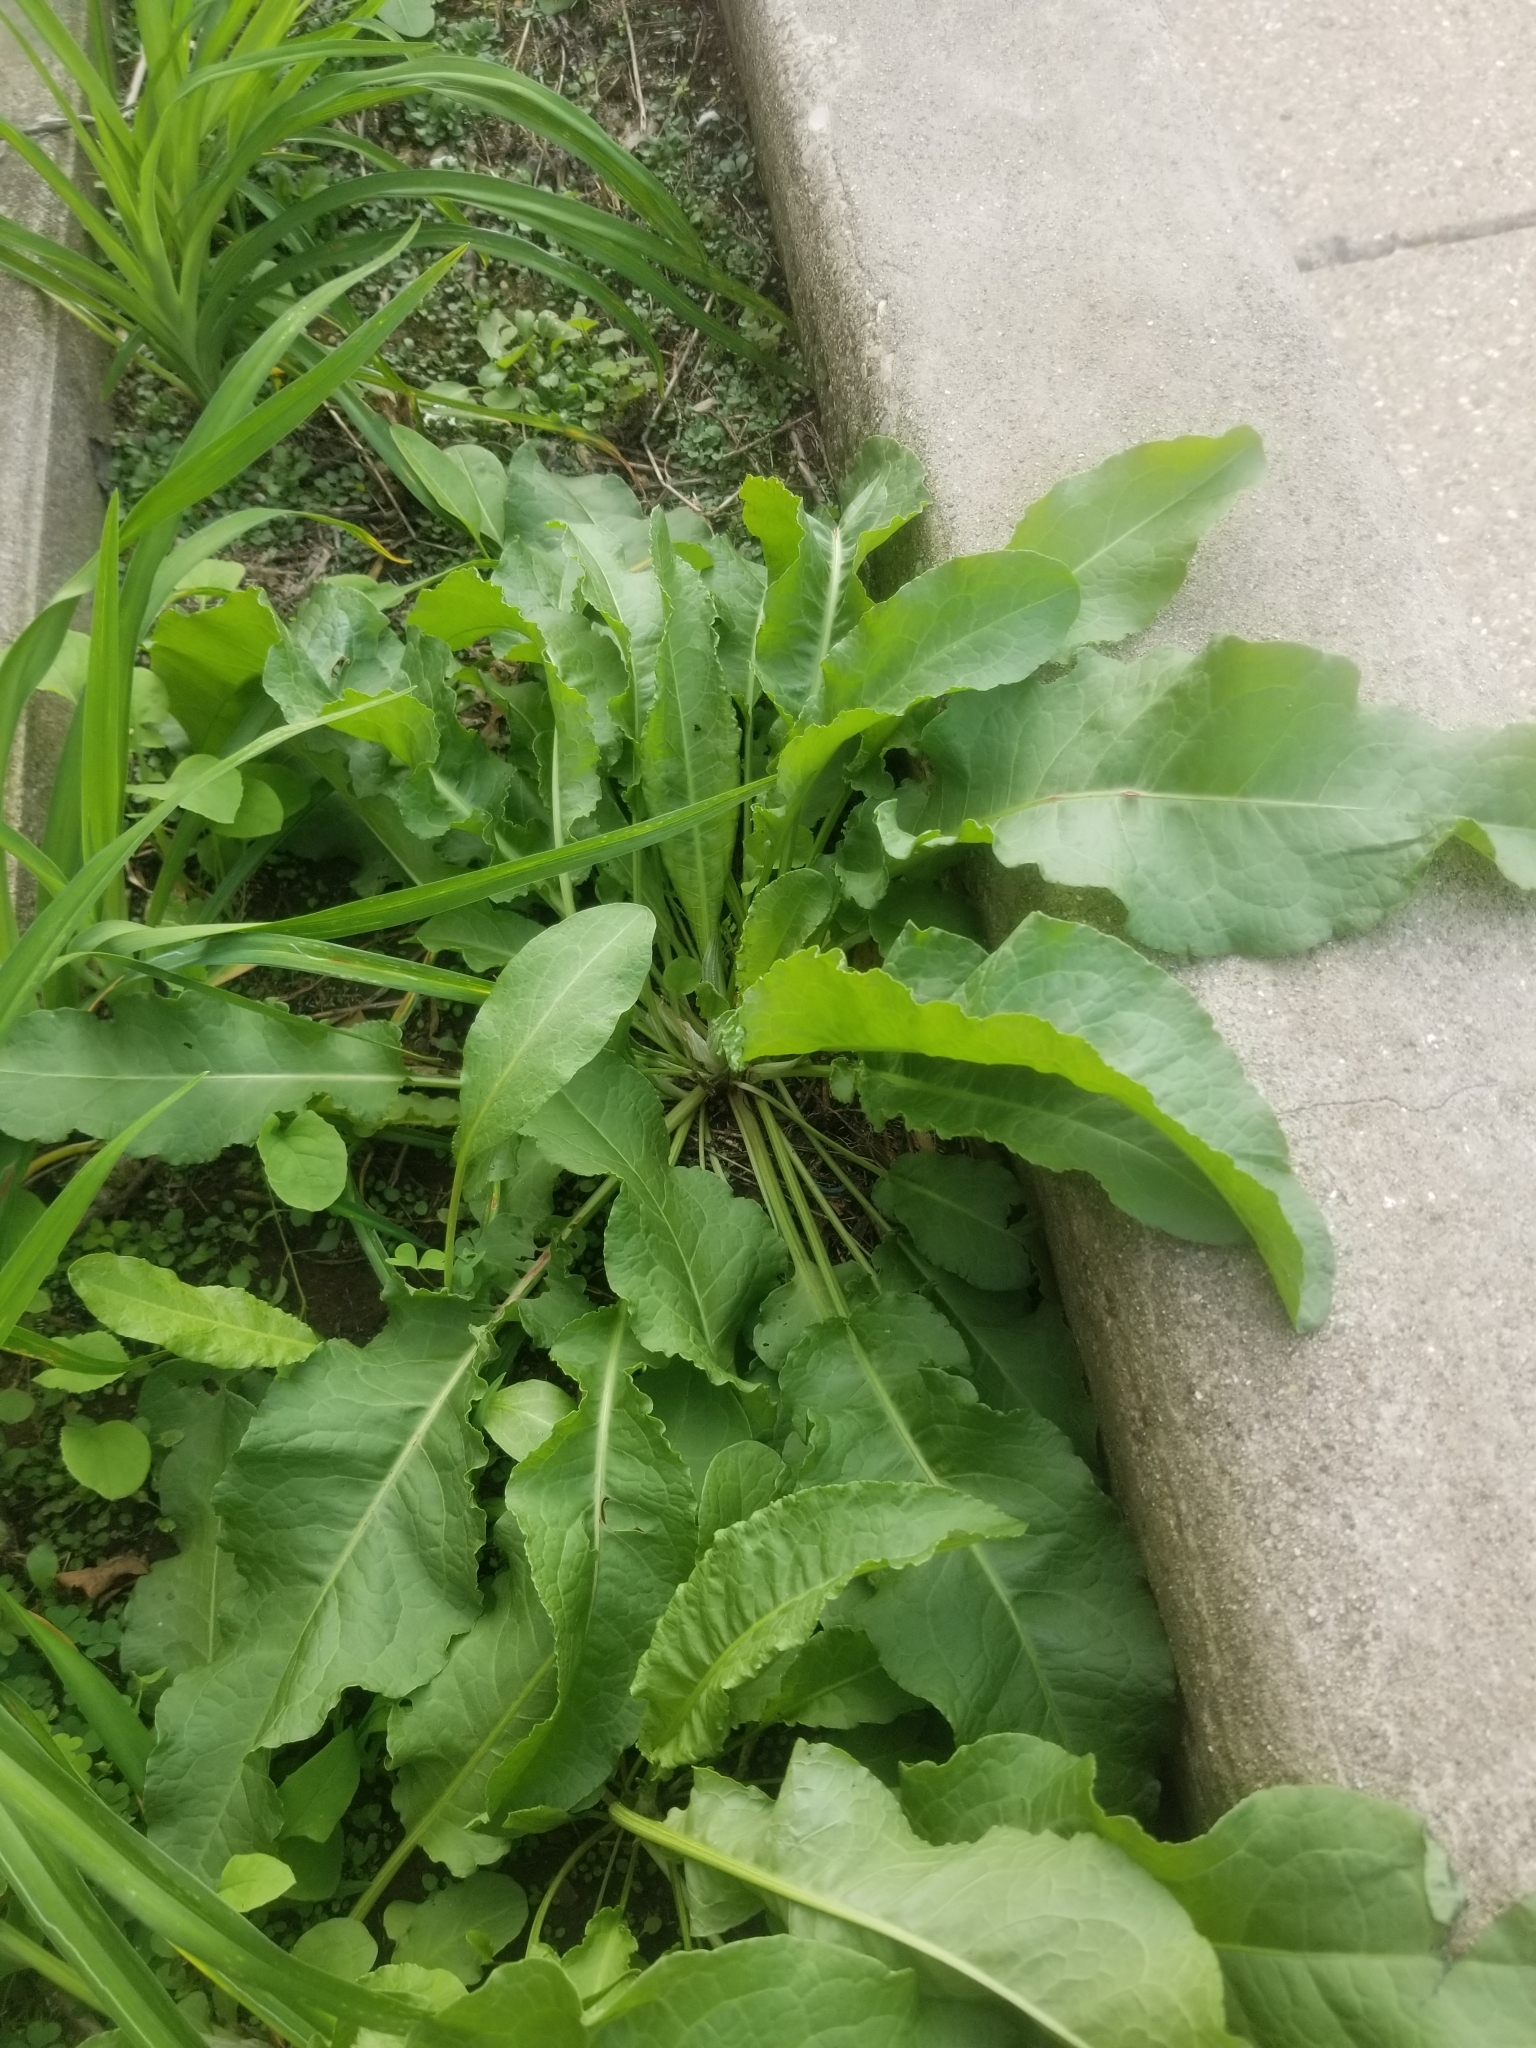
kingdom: Plantae
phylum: Tracheophyta
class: Magnoliopsida
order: Caryophyllales
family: Polygonaceae
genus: Rumex
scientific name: Rumex crispus
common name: Curled dock
